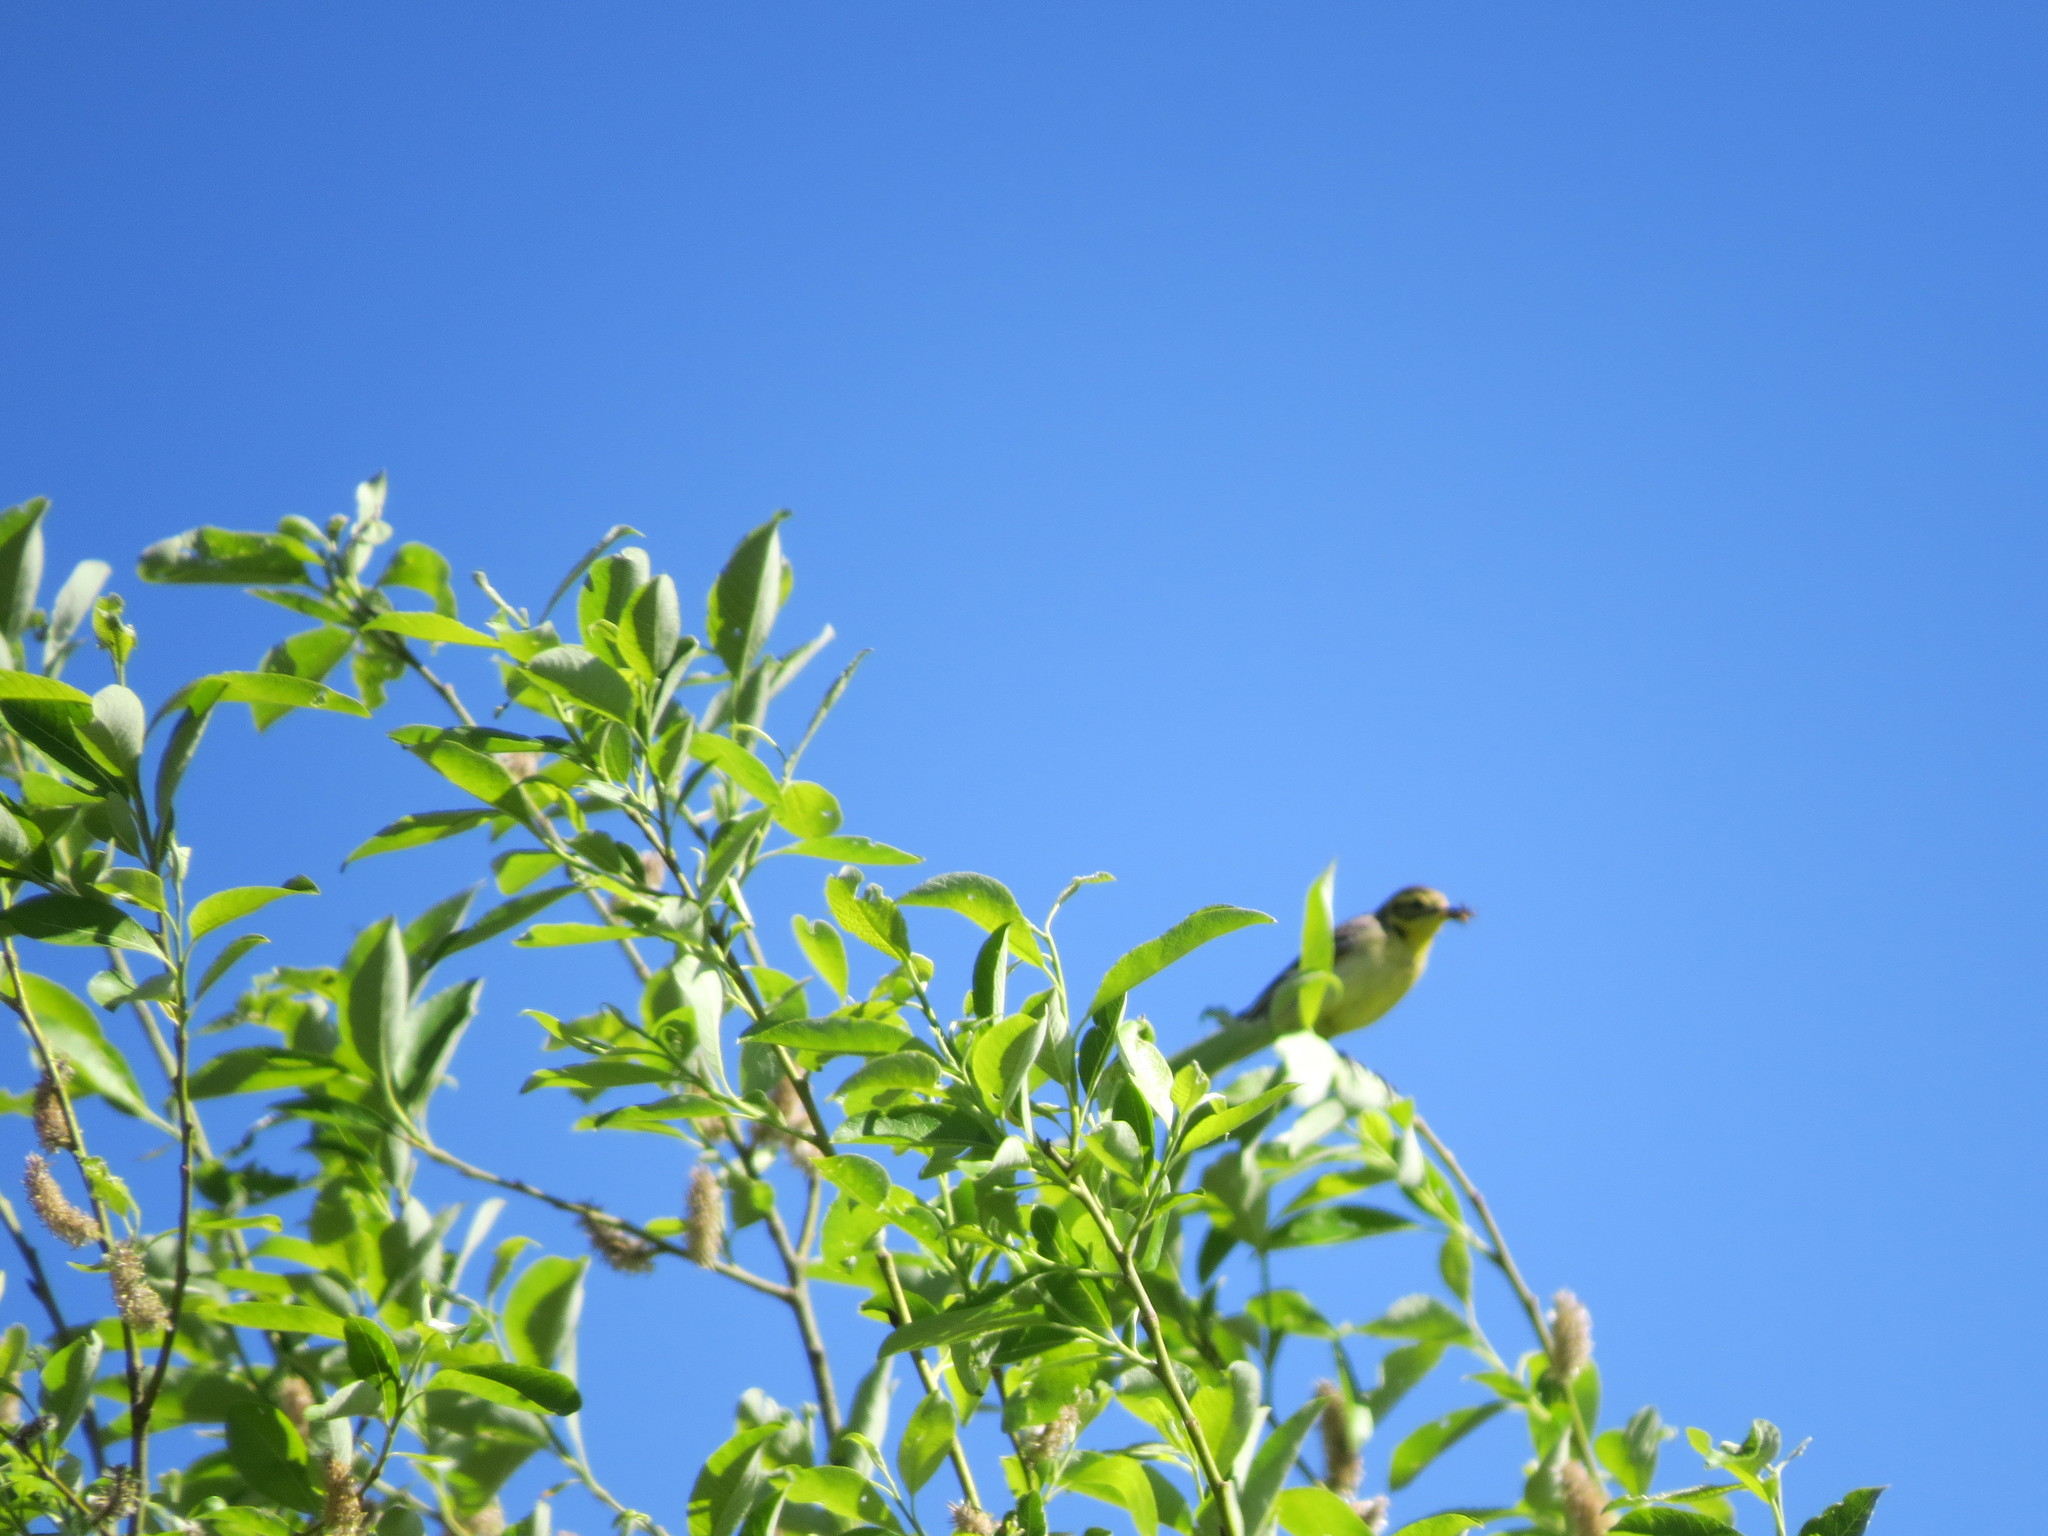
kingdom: Animalia
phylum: Chordata
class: Aves
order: Passeriformes
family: Motacillidae
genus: Motacilla
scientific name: Motacilla citreola
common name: Citrine wagtail
